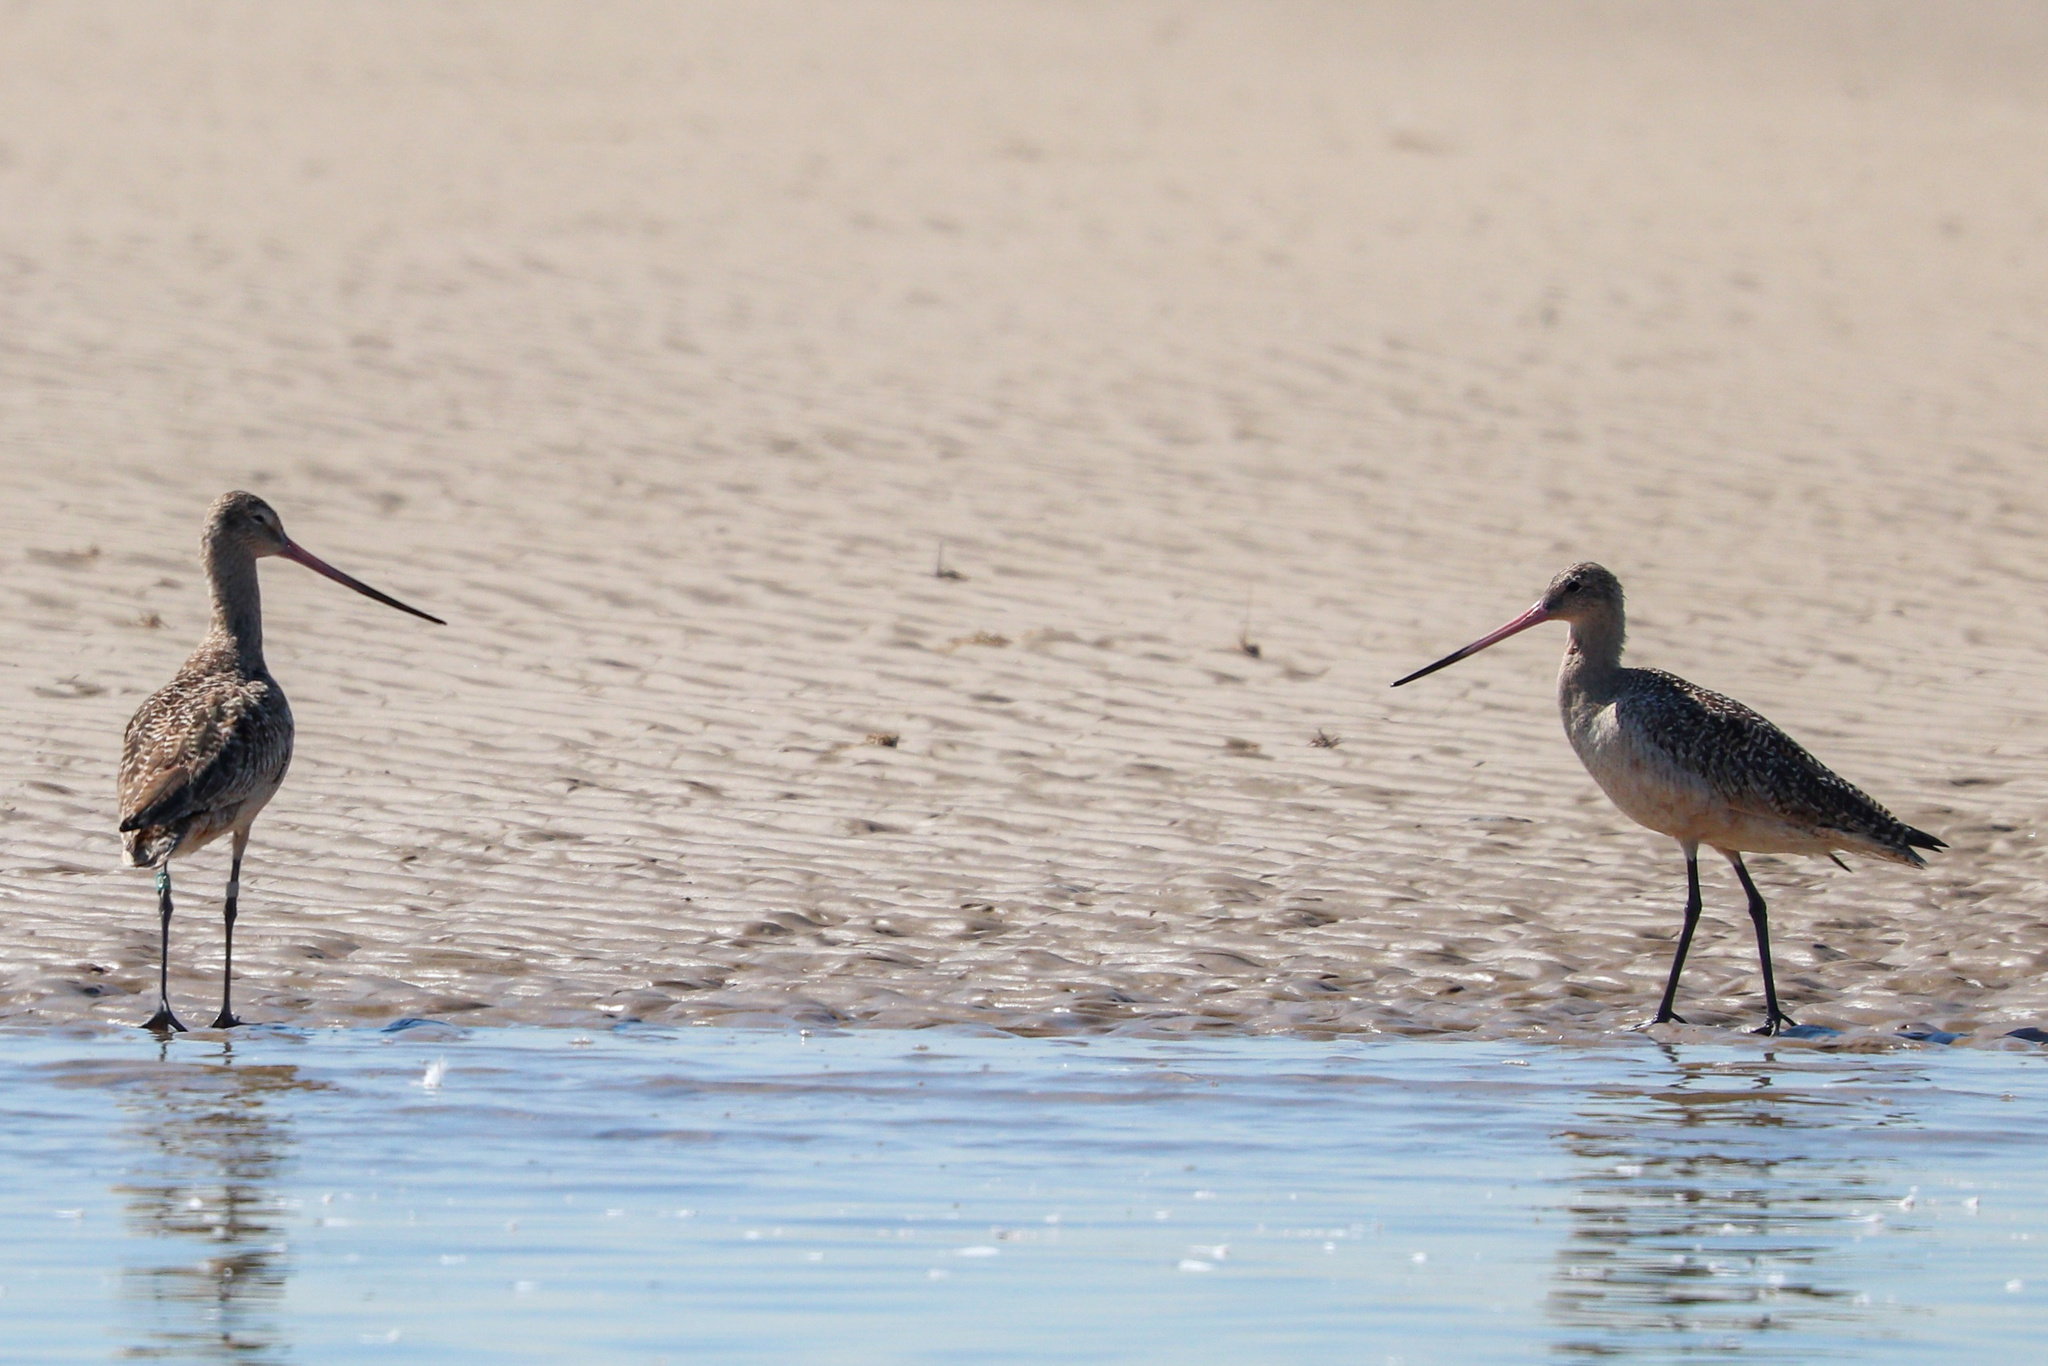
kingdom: Animalia
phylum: Chordata
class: Aves
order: Charadriiformes
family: Scolopacidae
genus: Limosa
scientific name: Limosa fedoa
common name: Marbled godwit
